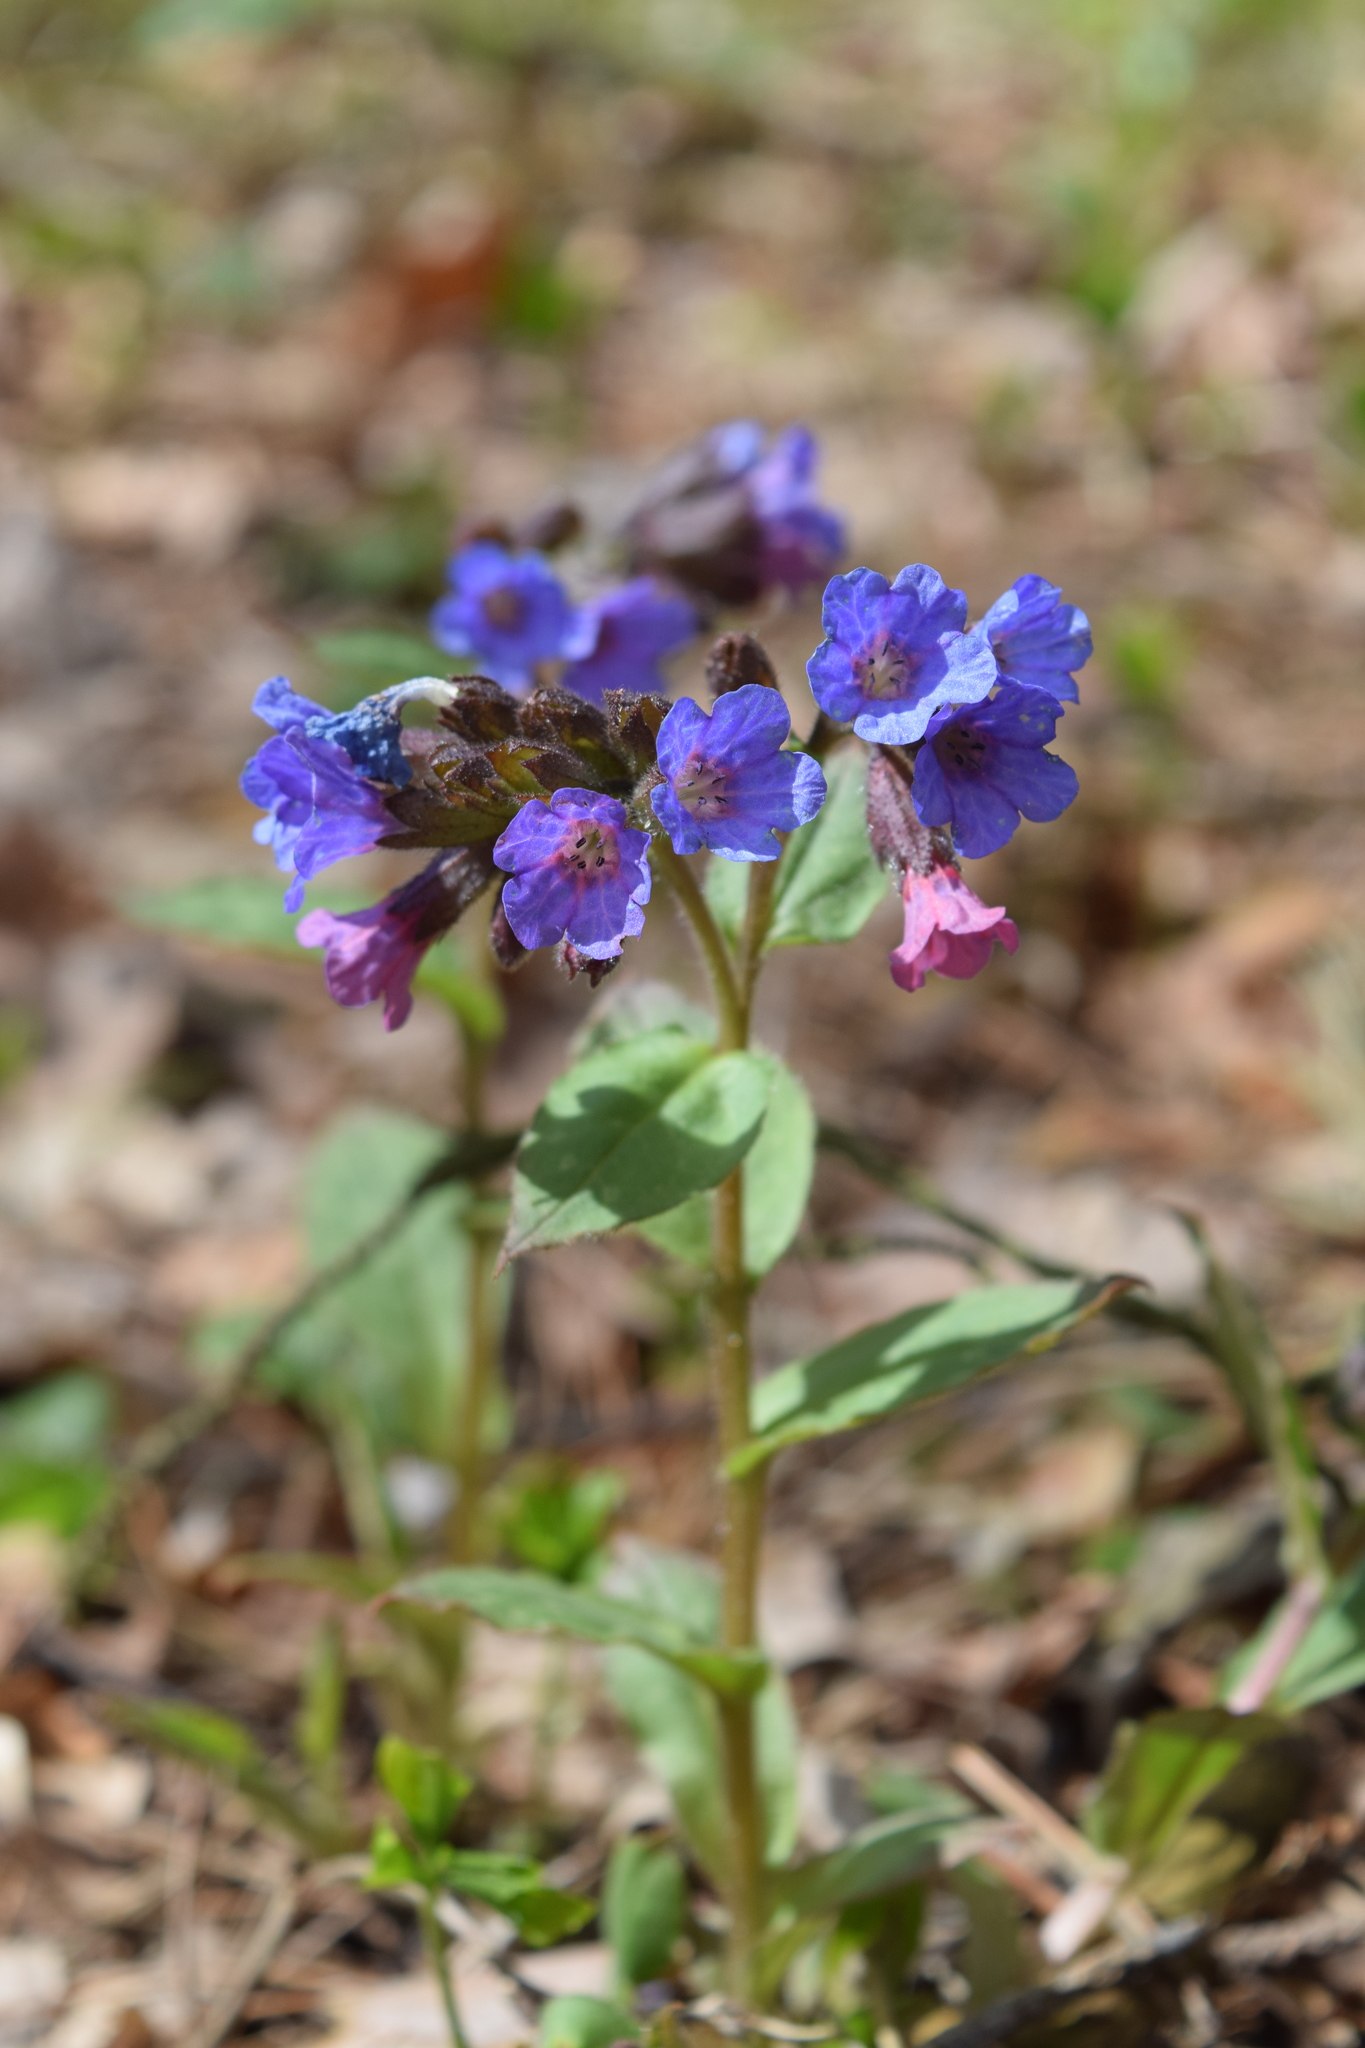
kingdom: Plantae
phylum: Tracheophyta
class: Magnoliopsida
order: Boraginales
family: Boraginaceae
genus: Pulmonaria
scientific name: Pulmonaria obscura
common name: Suffolk lungwort
